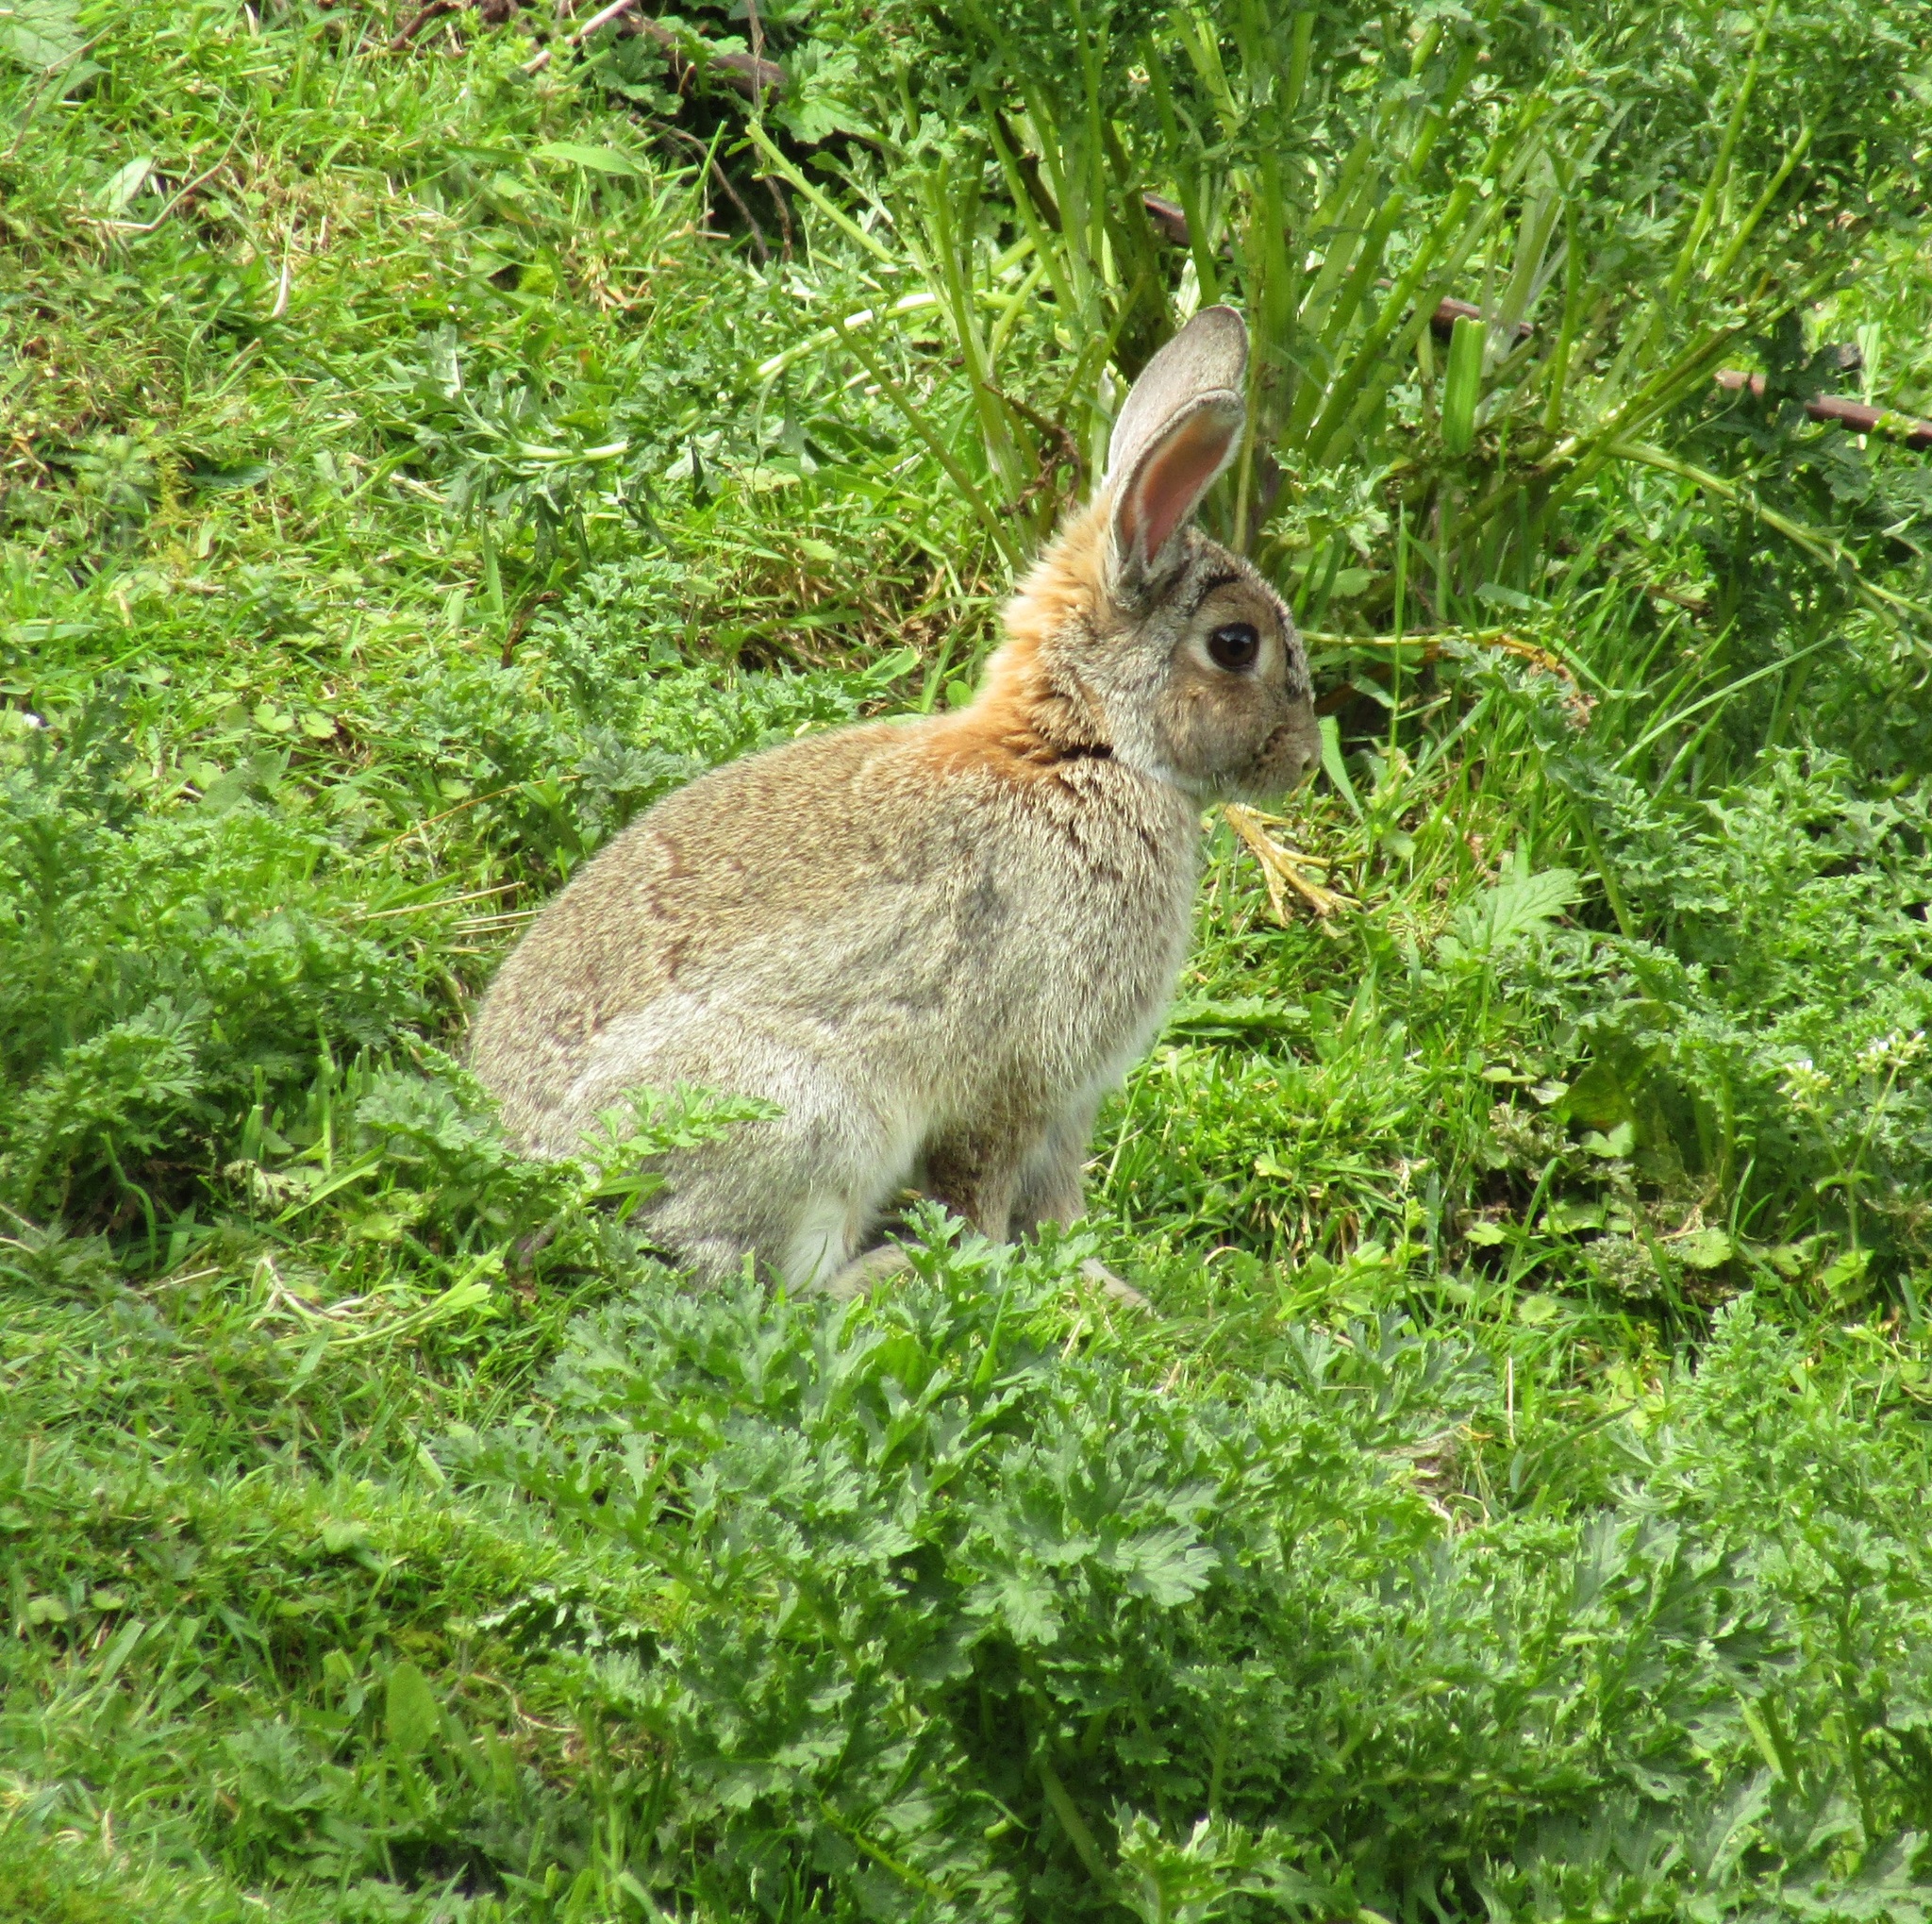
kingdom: Animalia
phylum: Chordata
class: Mammalia
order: Lagomorpha
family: Leporidae
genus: Oryctolagus
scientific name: Oryctolagus cuniculus
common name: European rabbit
